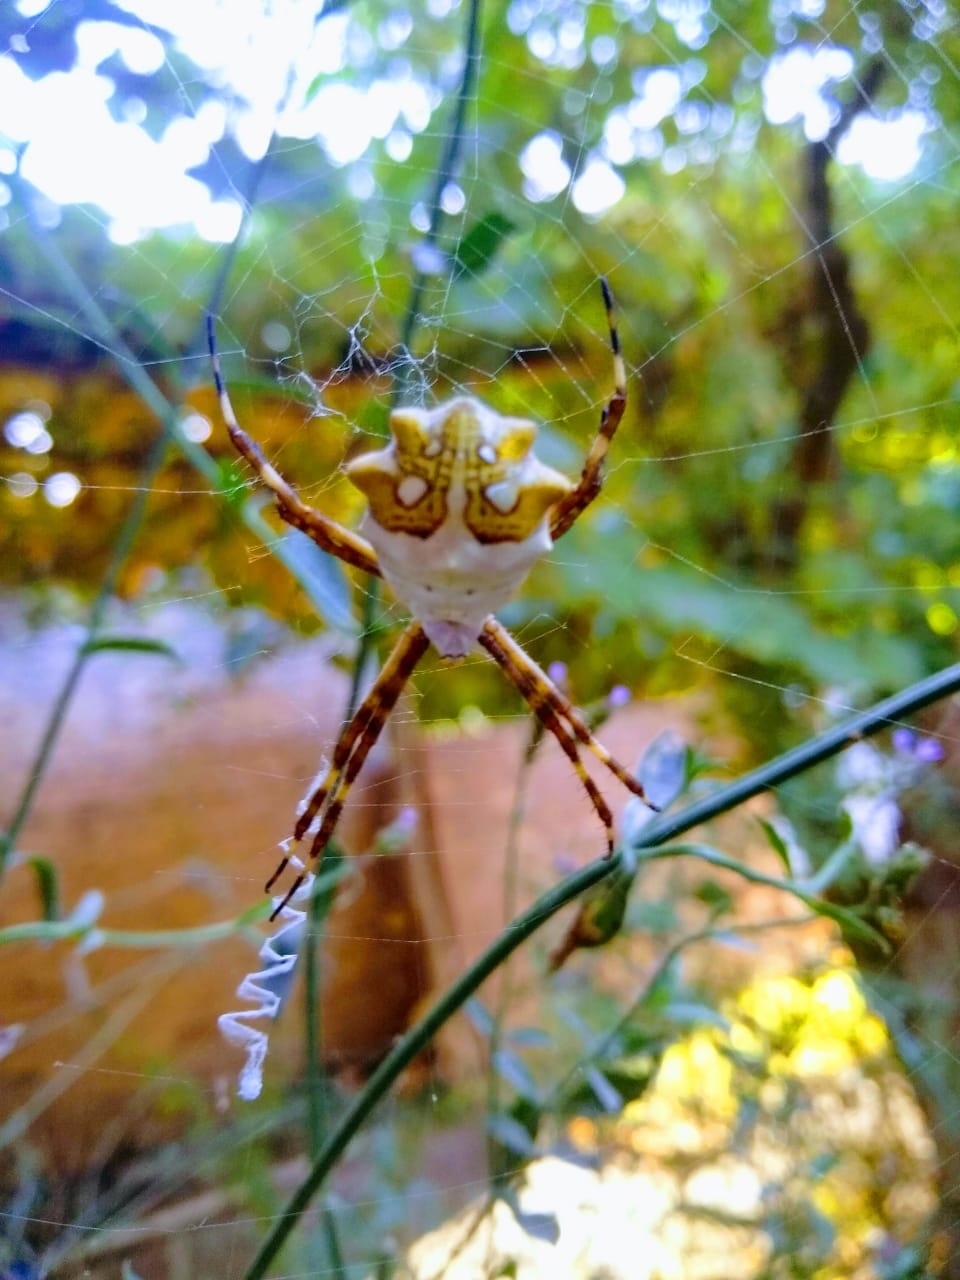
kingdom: Animalia
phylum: Arthropoda
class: Arachnida
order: Araneae
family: Araneidae
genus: Argiope
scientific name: Argiope argentata
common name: Orb weavers
